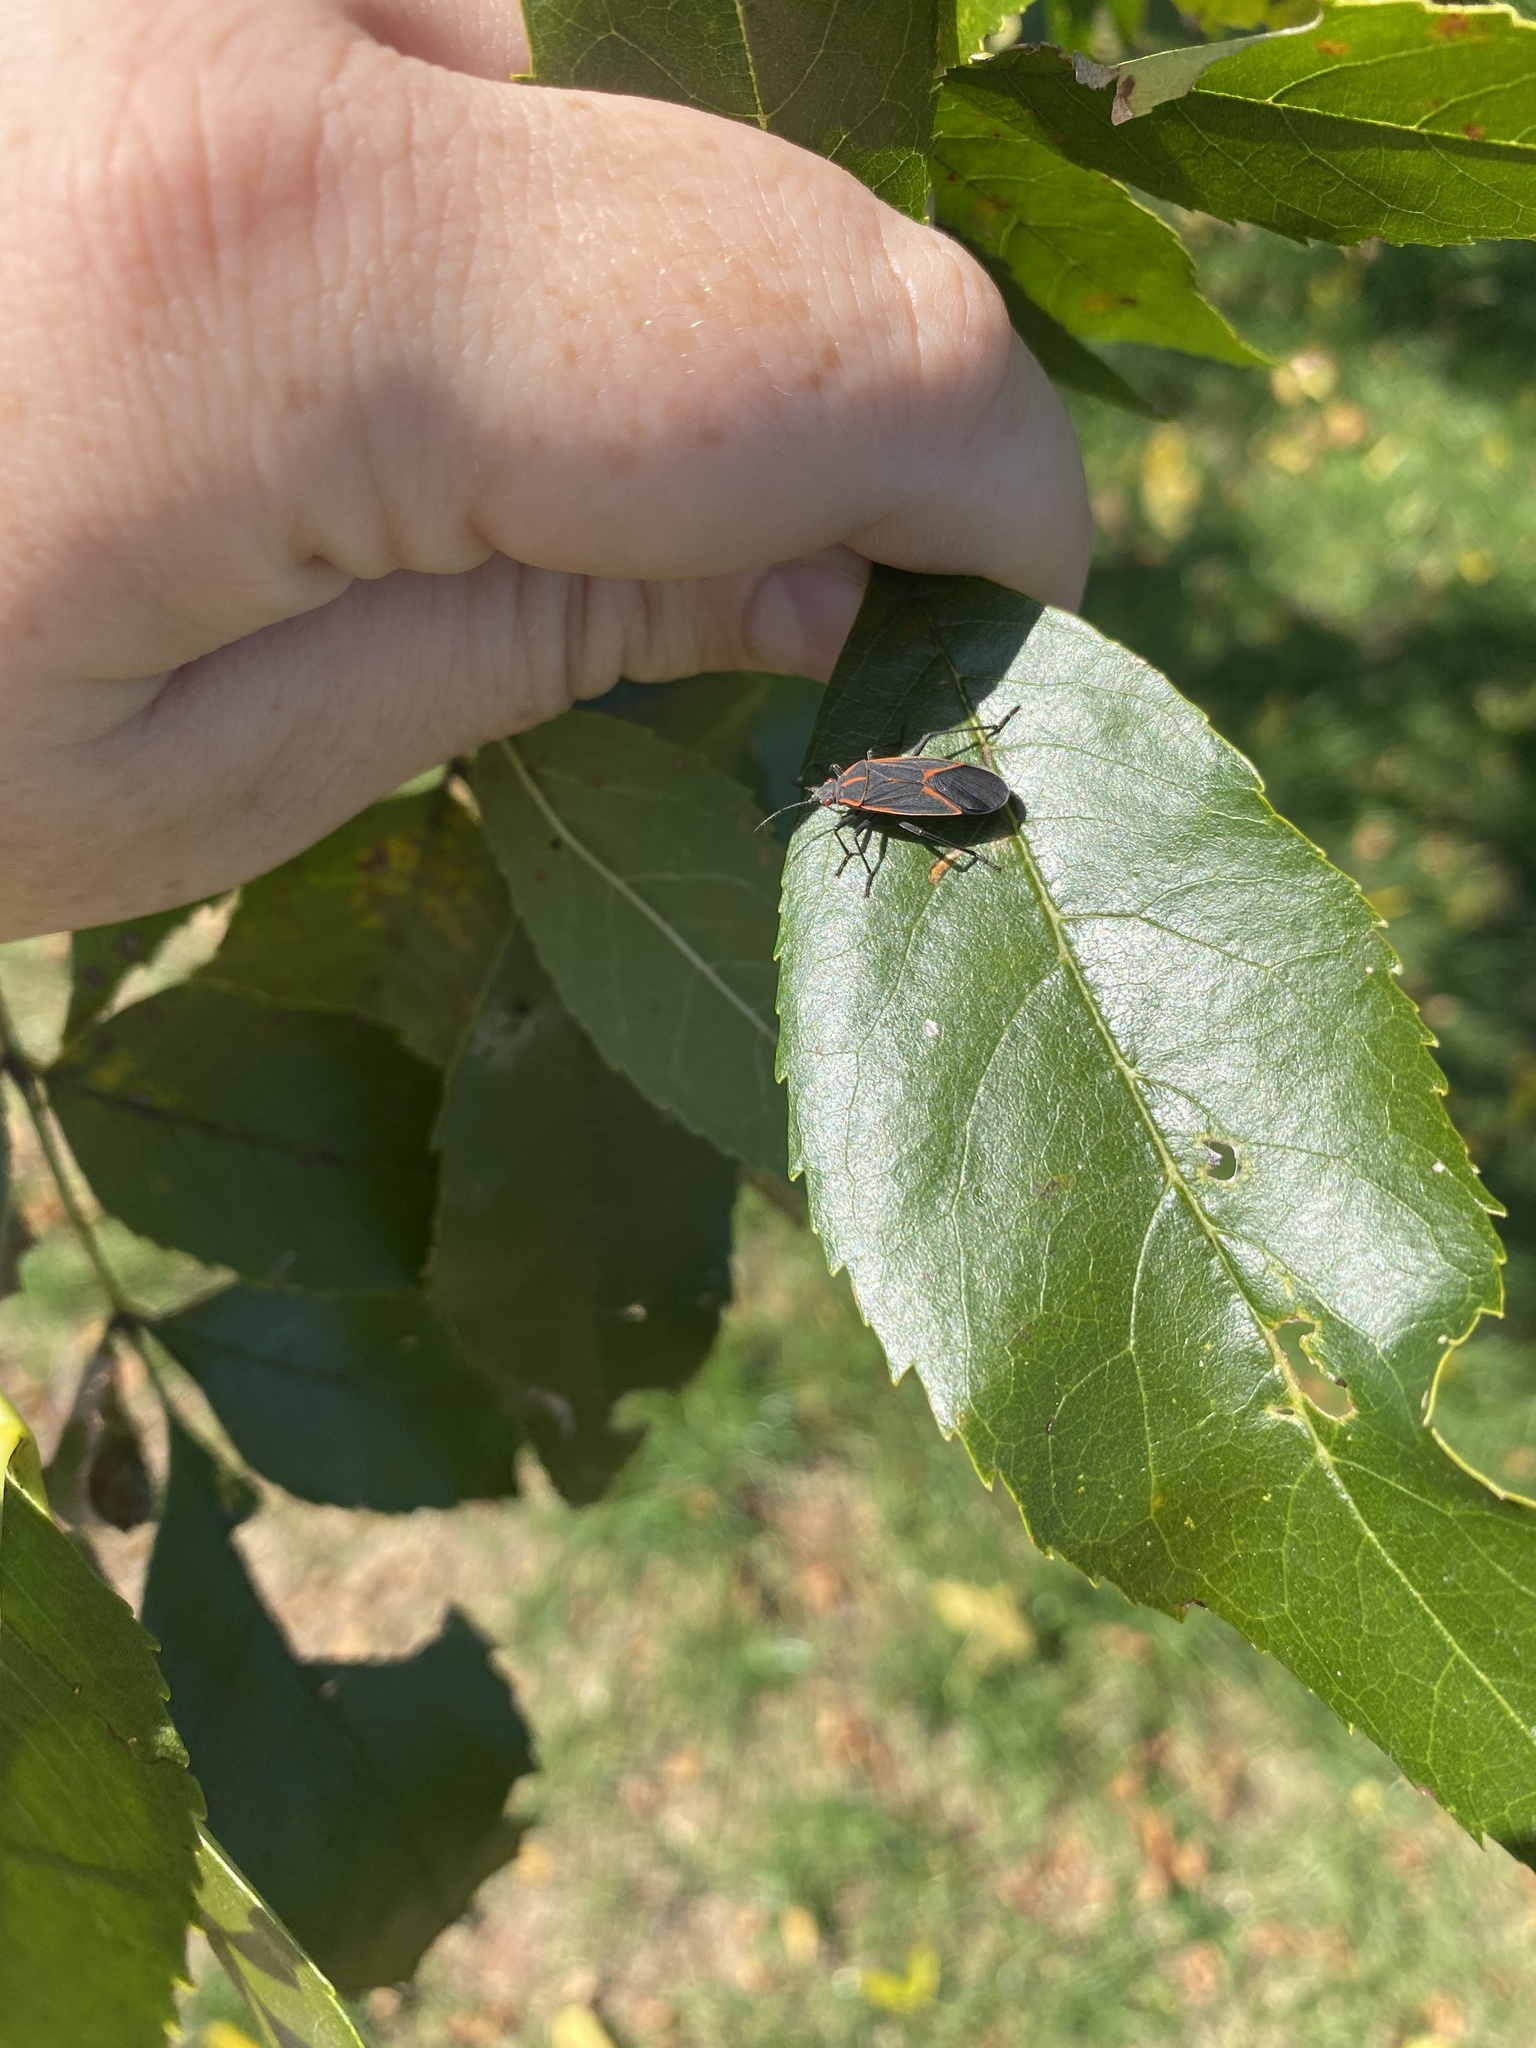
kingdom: Animalia
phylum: Arthropoda
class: Insecta
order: Hemiptera
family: Rhopalidae
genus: Boisea
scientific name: Boisea trivittata
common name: Boxelder bug
